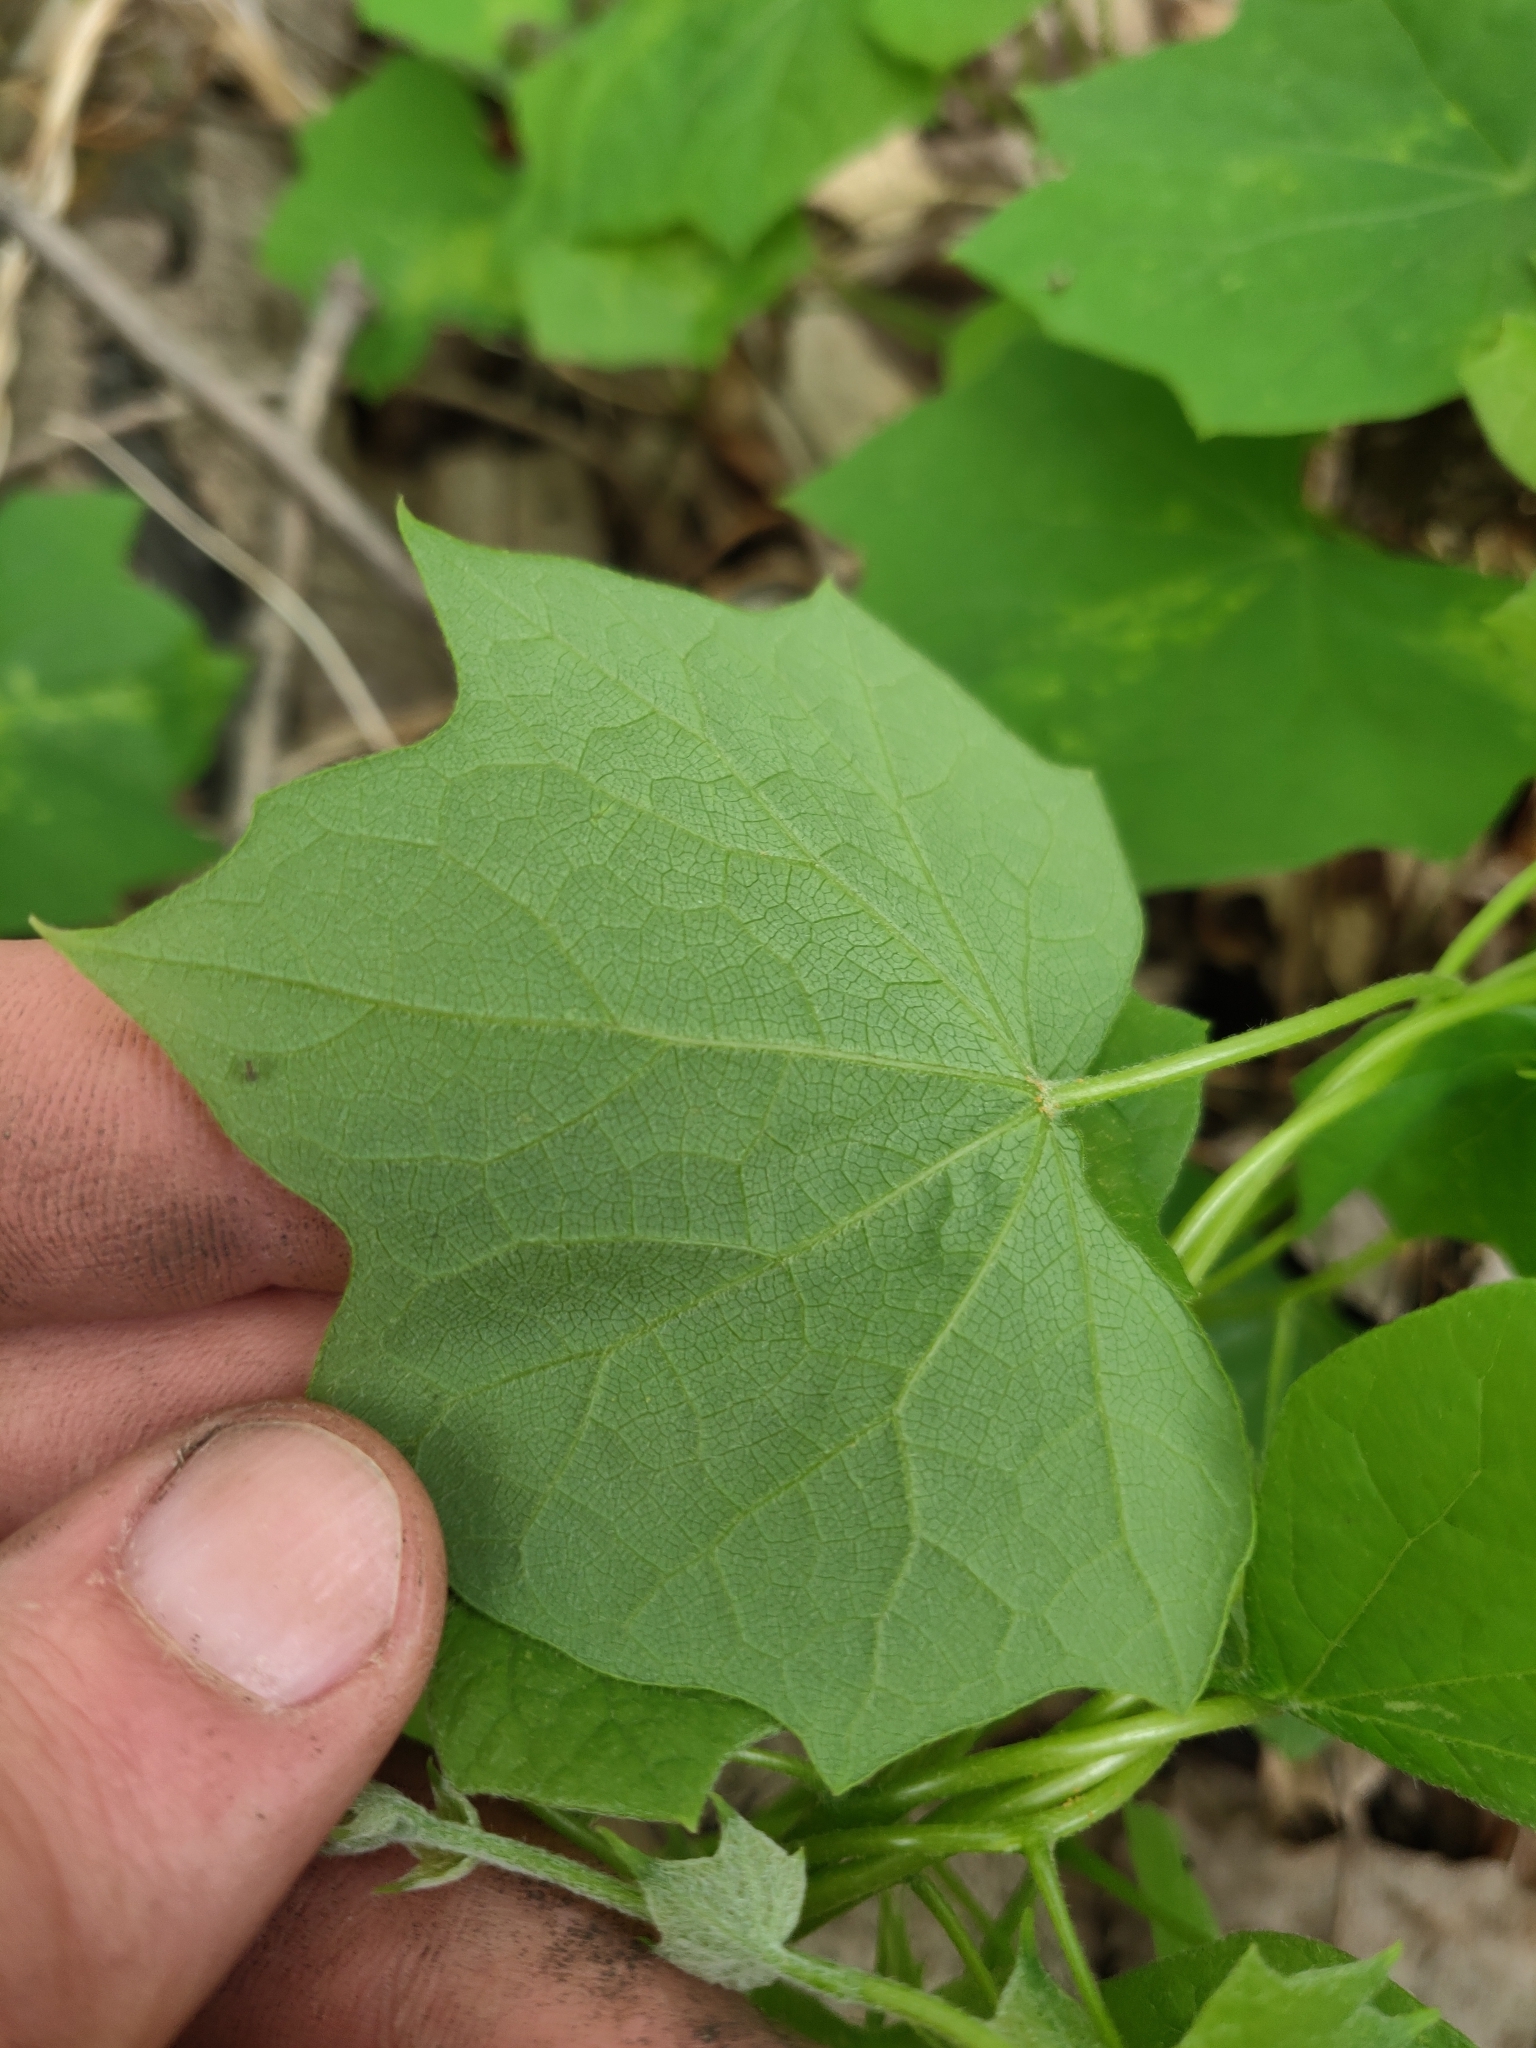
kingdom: Plantae
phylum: Tracheophyta
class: Magnoliopsida
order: Ranunculales
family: Menispermaceae
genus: Menispermum
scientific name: Menispermum canadense
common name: Moonseed
